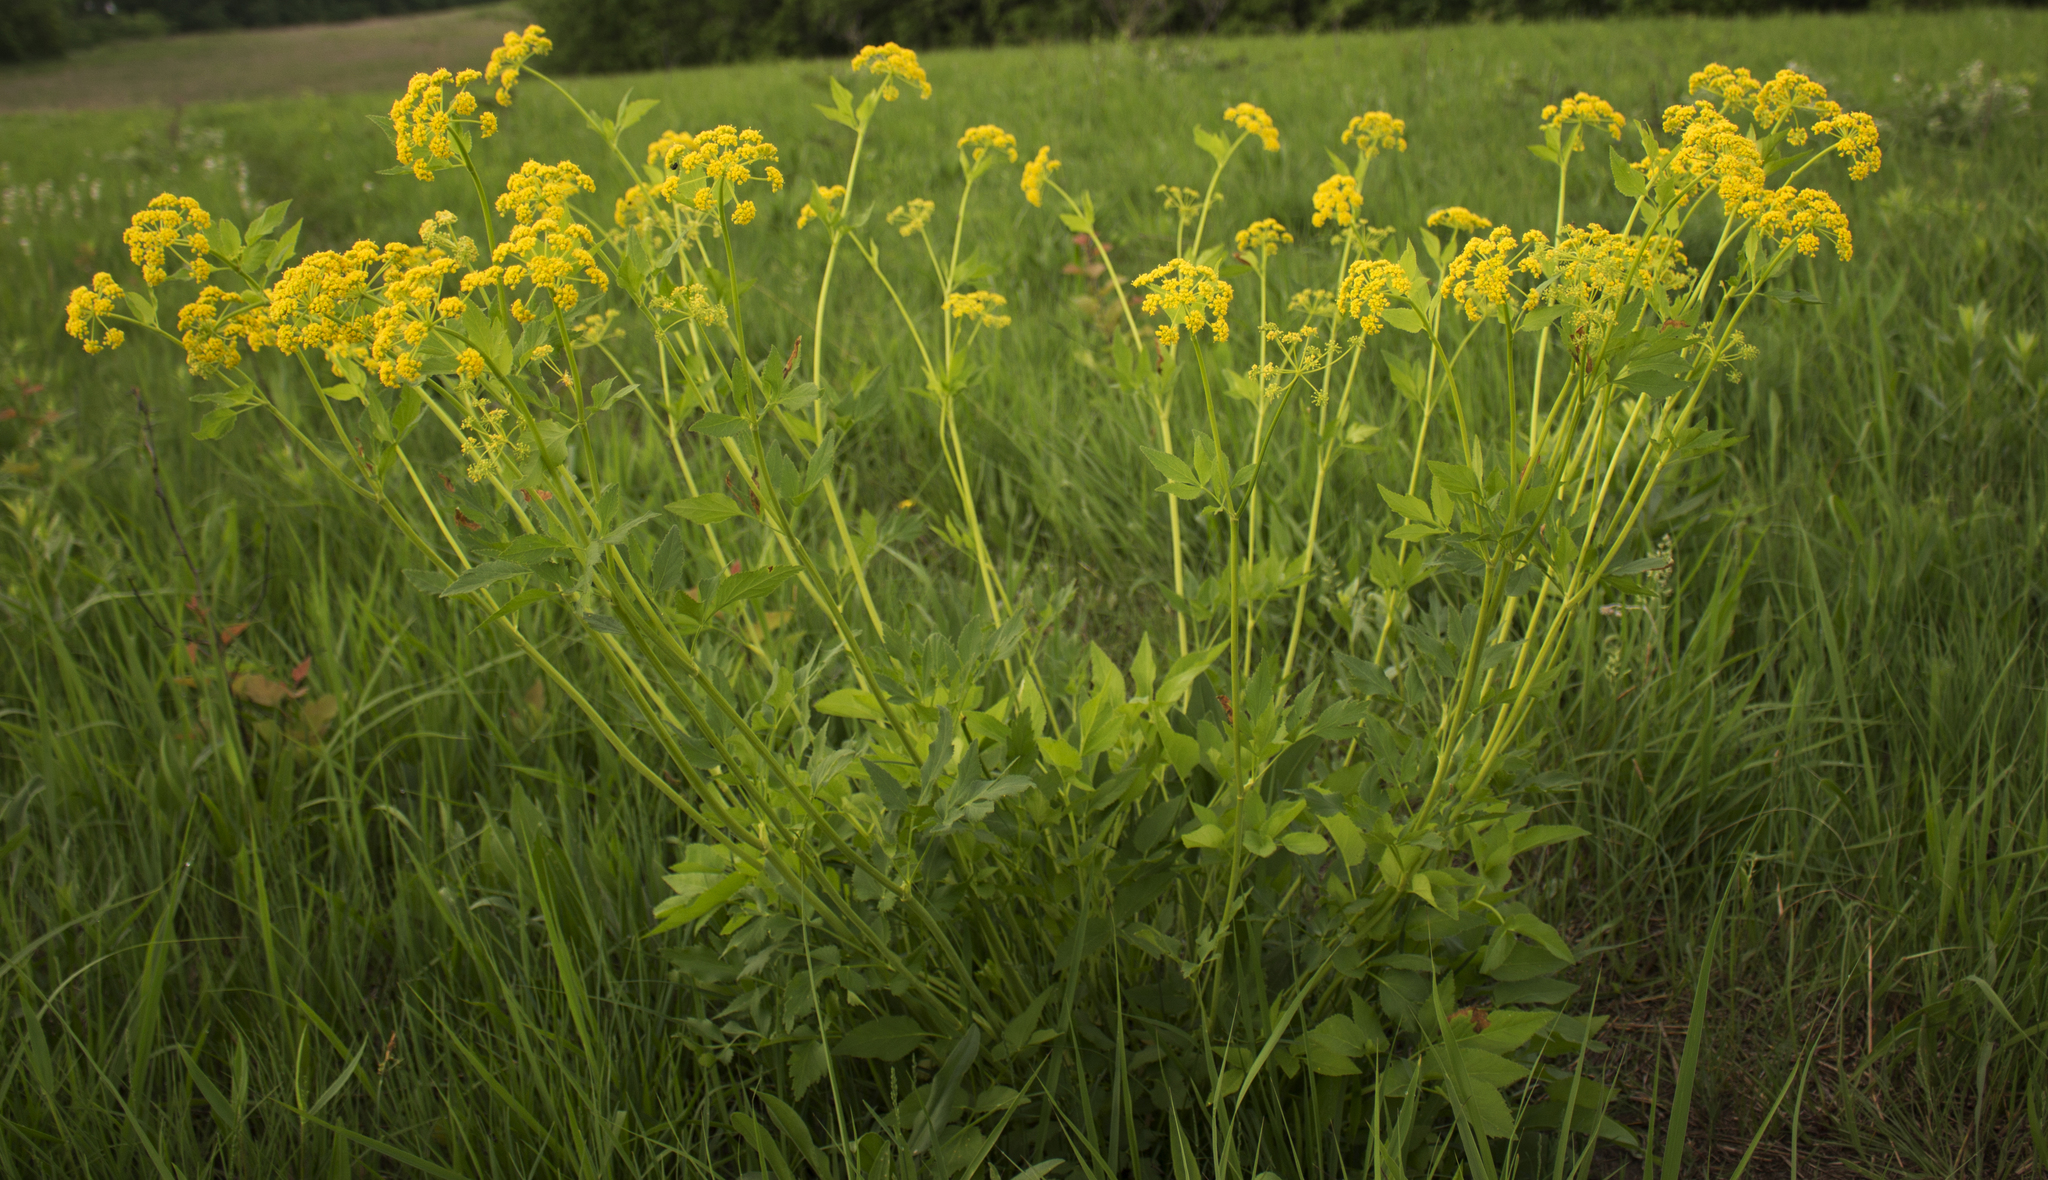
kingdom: Plantae
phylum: Tracheophyta
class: Magnoliopsida
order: Apiales
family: Apiaceae
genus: Zizia
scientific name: Zizia aurea
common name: Golden alexanders
